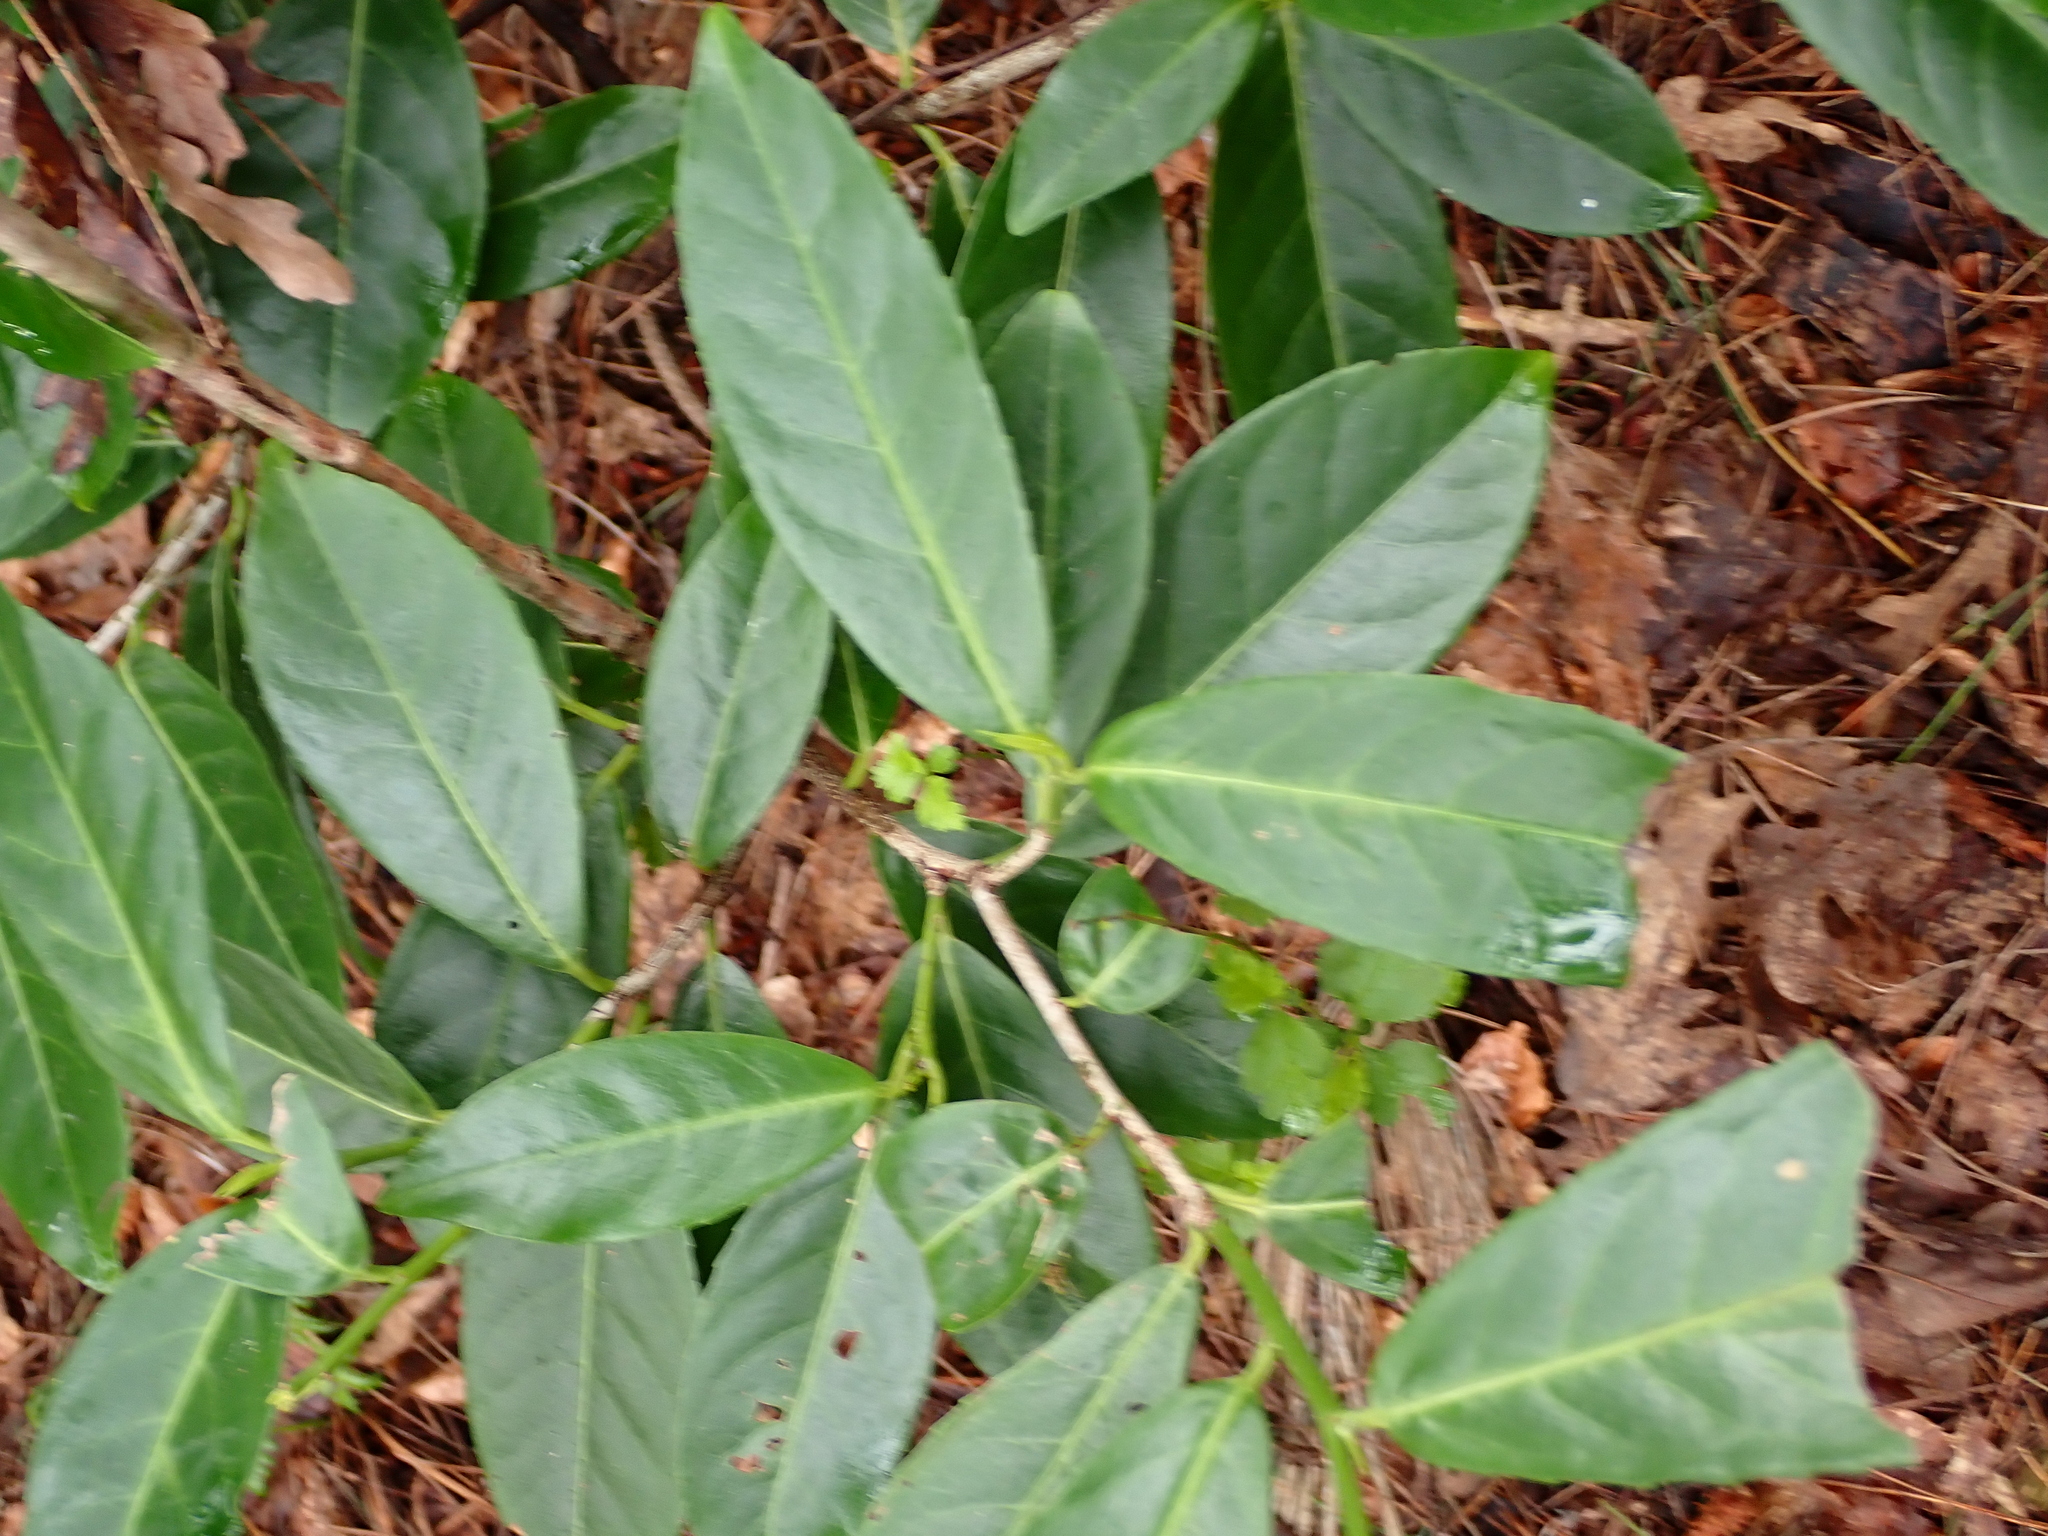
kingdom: Plantae
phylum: Tracheophyta
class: Magnoliopsida
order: Rosales
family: Rosaceae
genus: Prunus
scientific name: Prunus laurocerasus
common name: Cherry laurel
